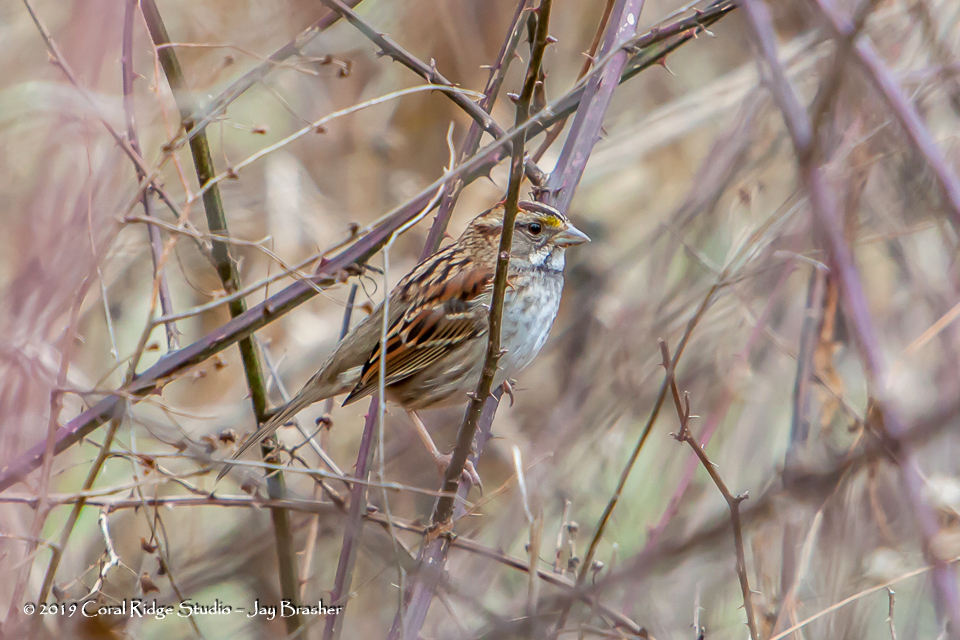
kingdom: Animalia
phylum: Chordata
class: Aves
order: Passeriformes
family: Passerellidae
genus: Zonotrichia
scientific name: Zonotrichia albicollis
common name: White-throated sparrow
